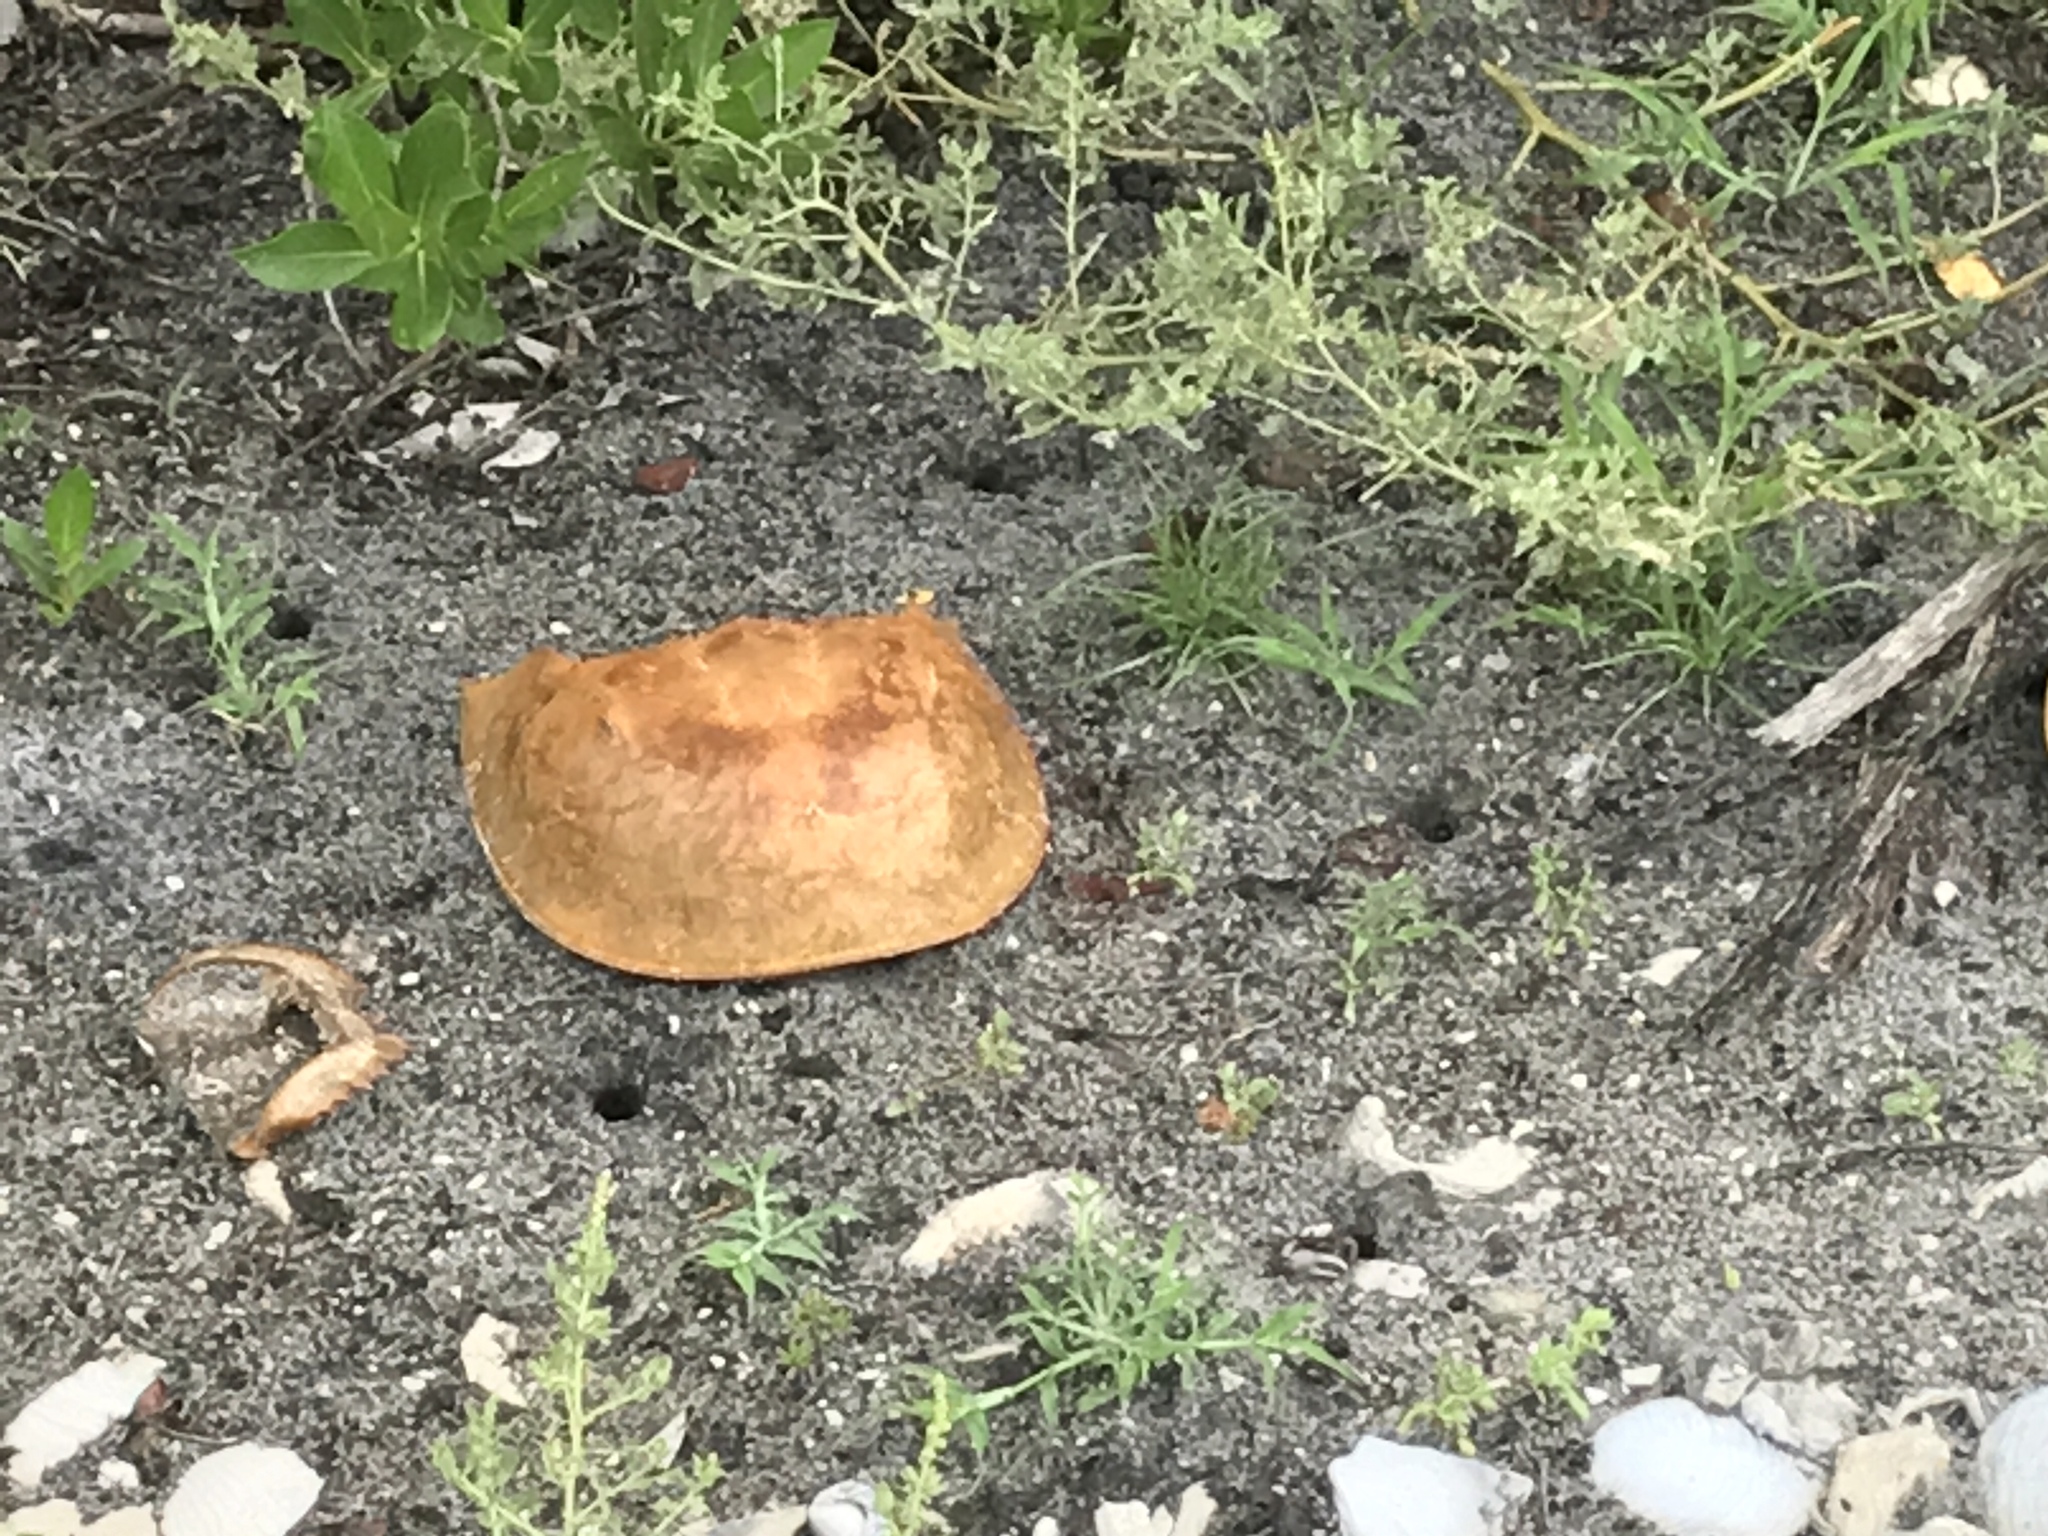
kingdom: Animalia
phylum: Arthropoda
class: Merostomata
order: Xiphosurida
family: Limulidae
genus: Limulus
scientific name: Limulus polyphemus
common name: Horseshoe crab
